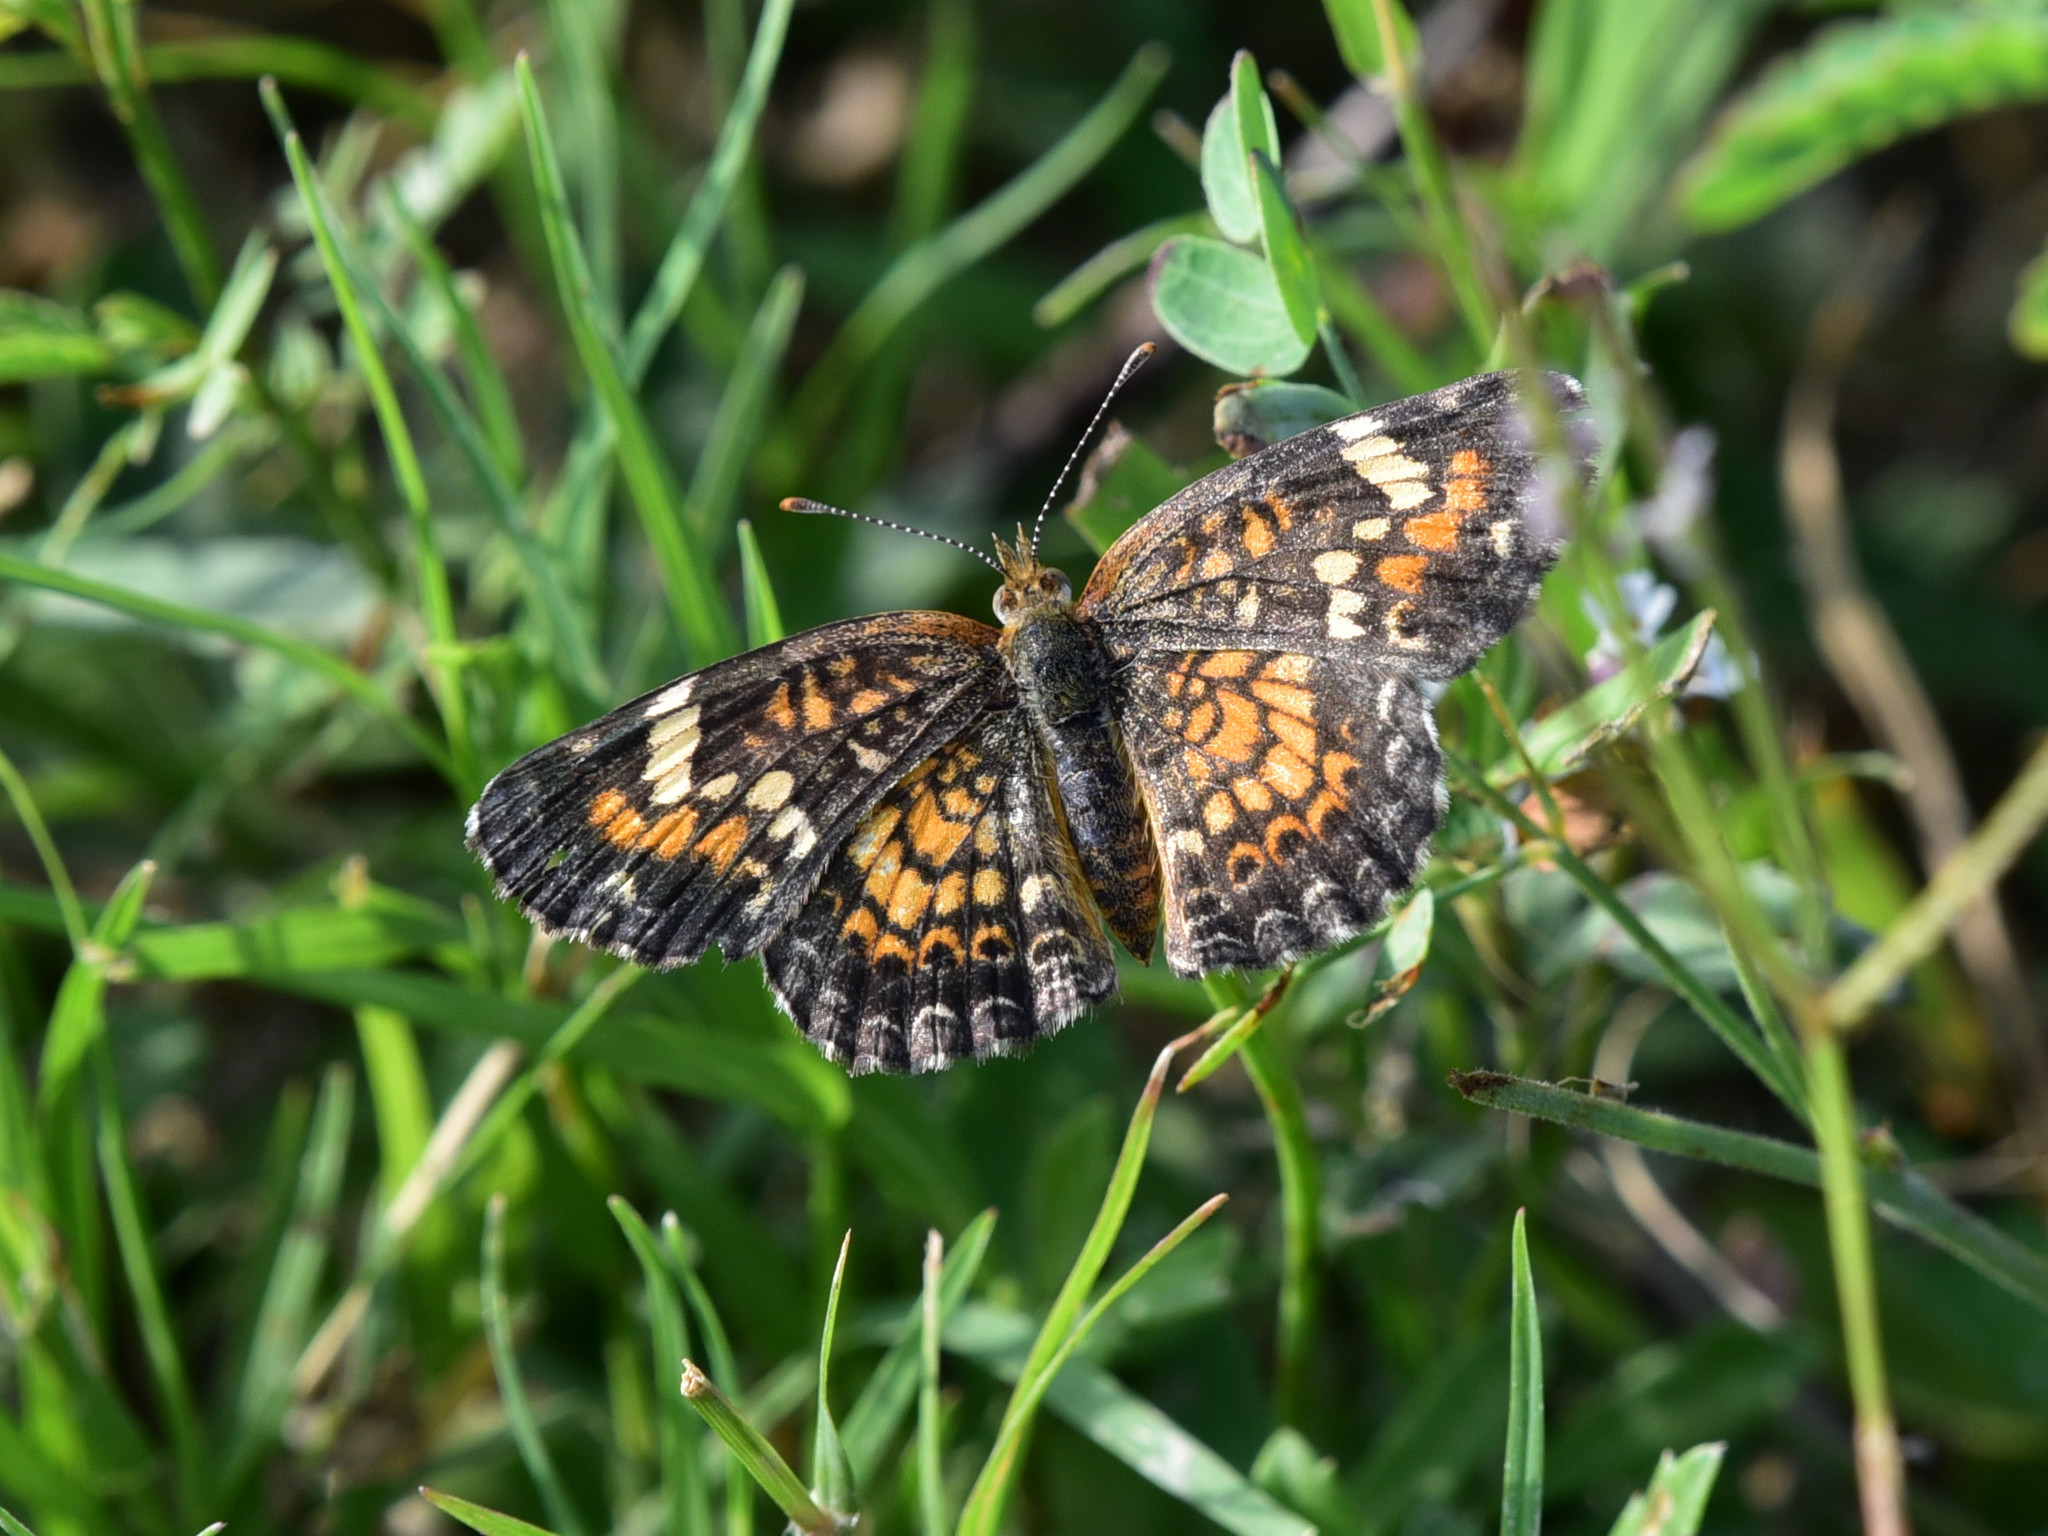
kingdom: Animalia
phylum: Arthropoda
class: Insecta
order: Lepidoptera
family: Nymphalidae
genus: Phyciodes
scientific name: Phyciodes phaon
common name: Phaon crescent
